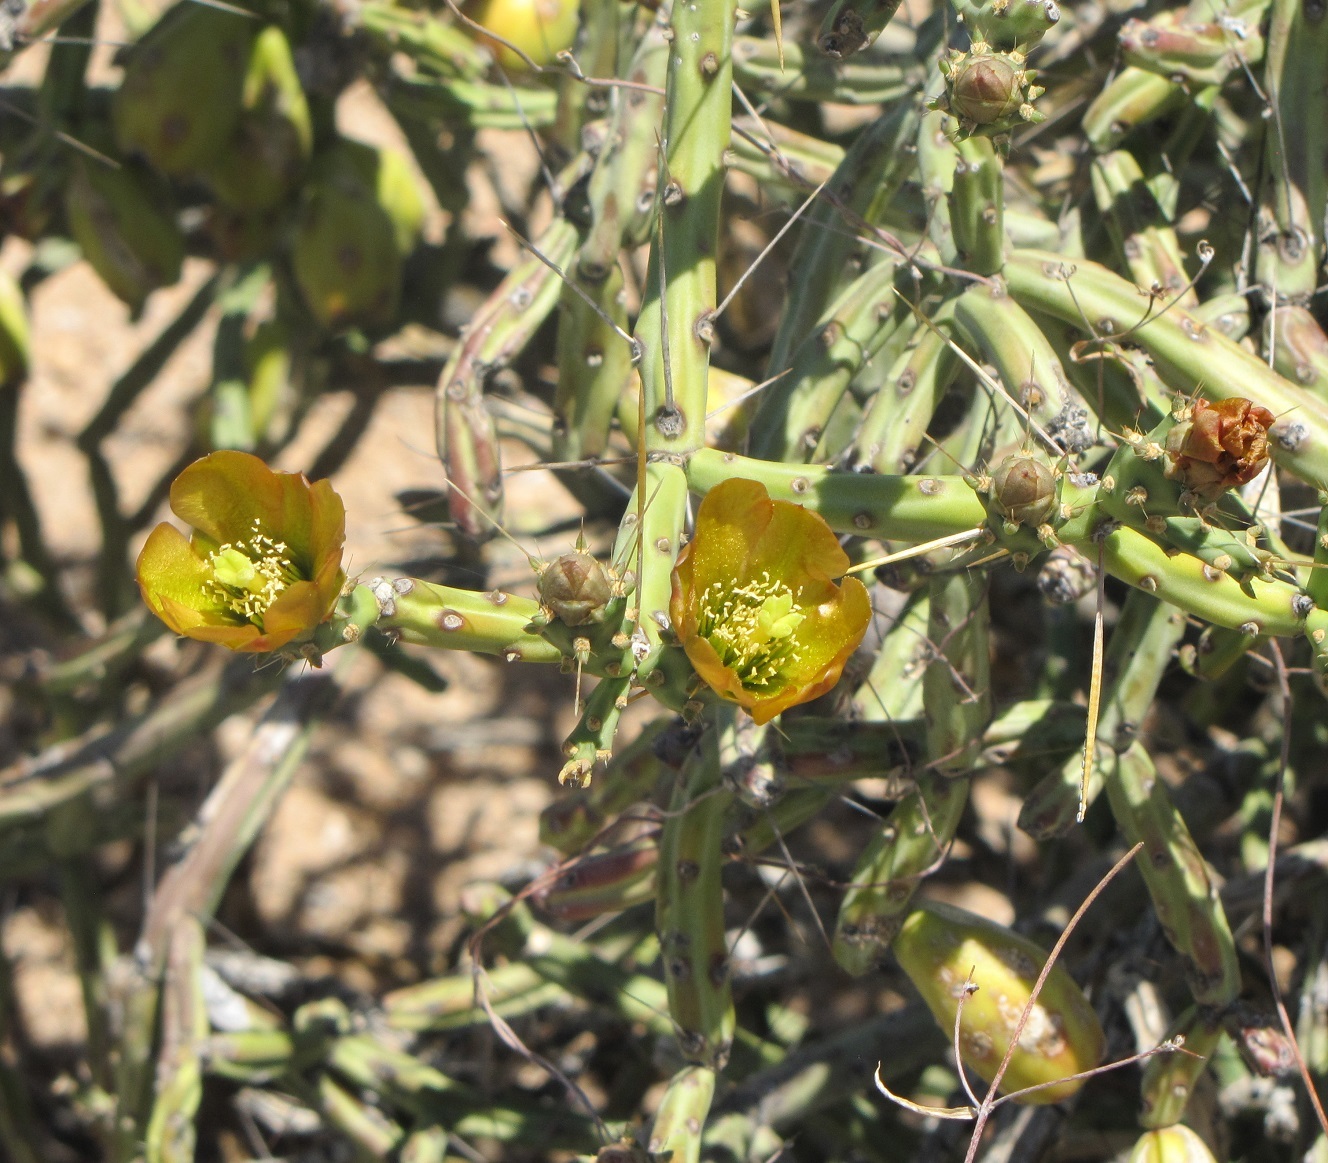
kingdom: Plantae
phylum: Tracheophyta
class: Magnoliopsida
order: Caryophyllales
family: Cactaceae
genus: Cylindropuntia
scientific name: Cylindropuntia arbuscula
